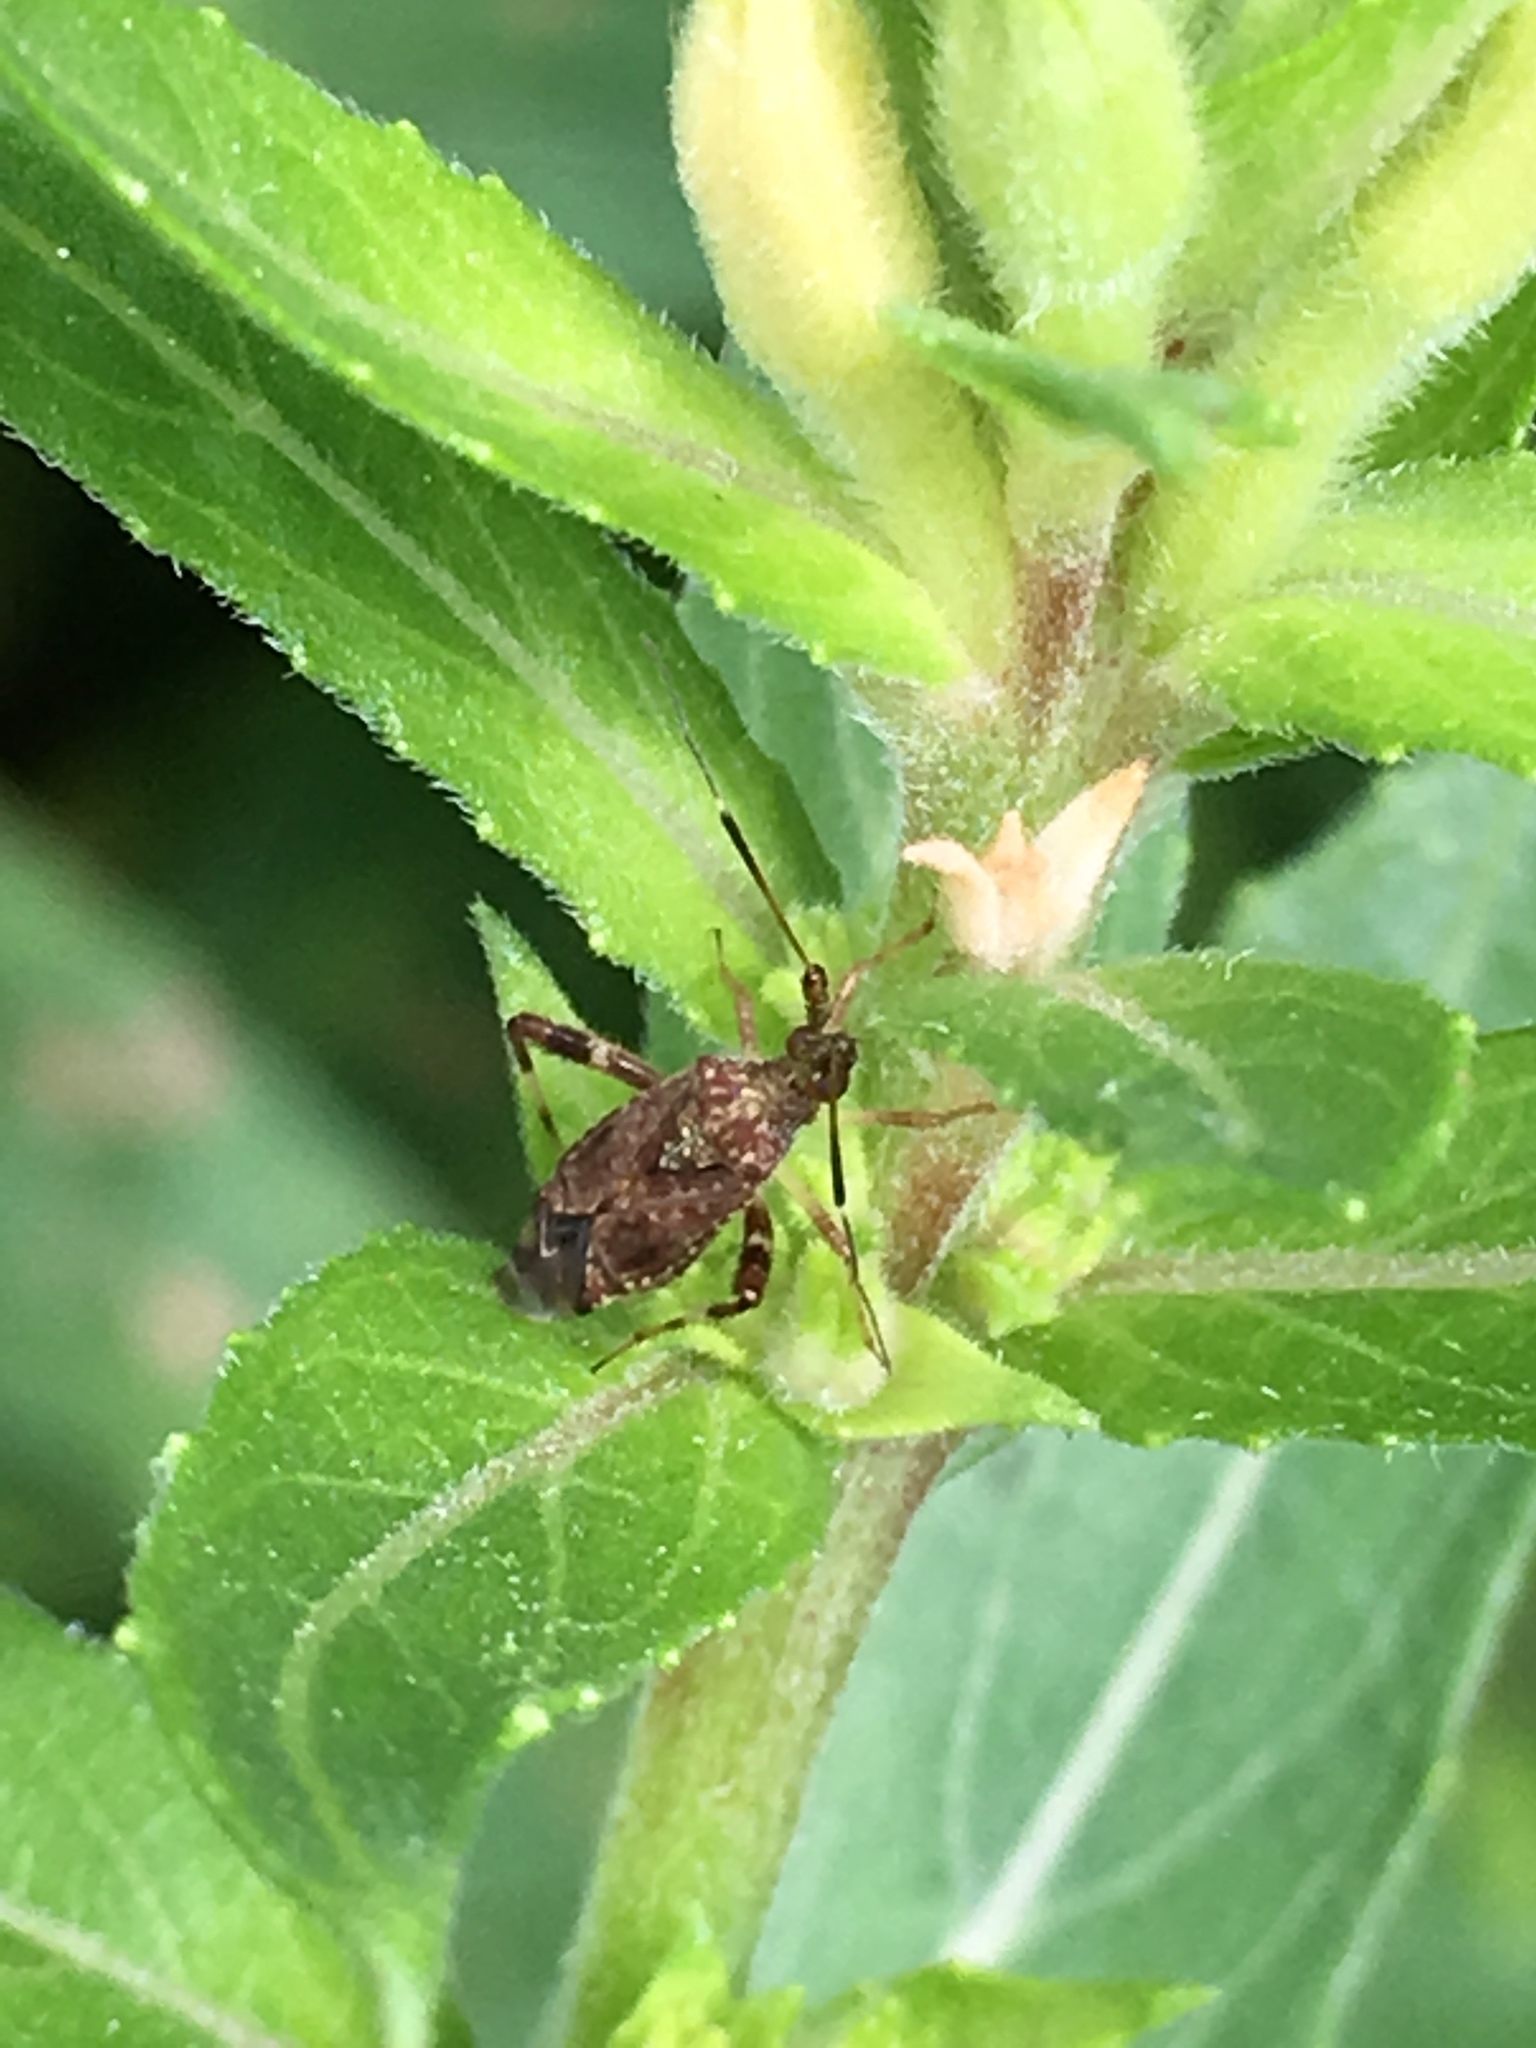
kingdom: Plantae
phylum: Tracheophyta
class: Magnoliopsida
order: Myrtales
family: Onagraceae
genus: Oenothera
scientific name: Oenothera biennis
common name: Common evening-primrose
